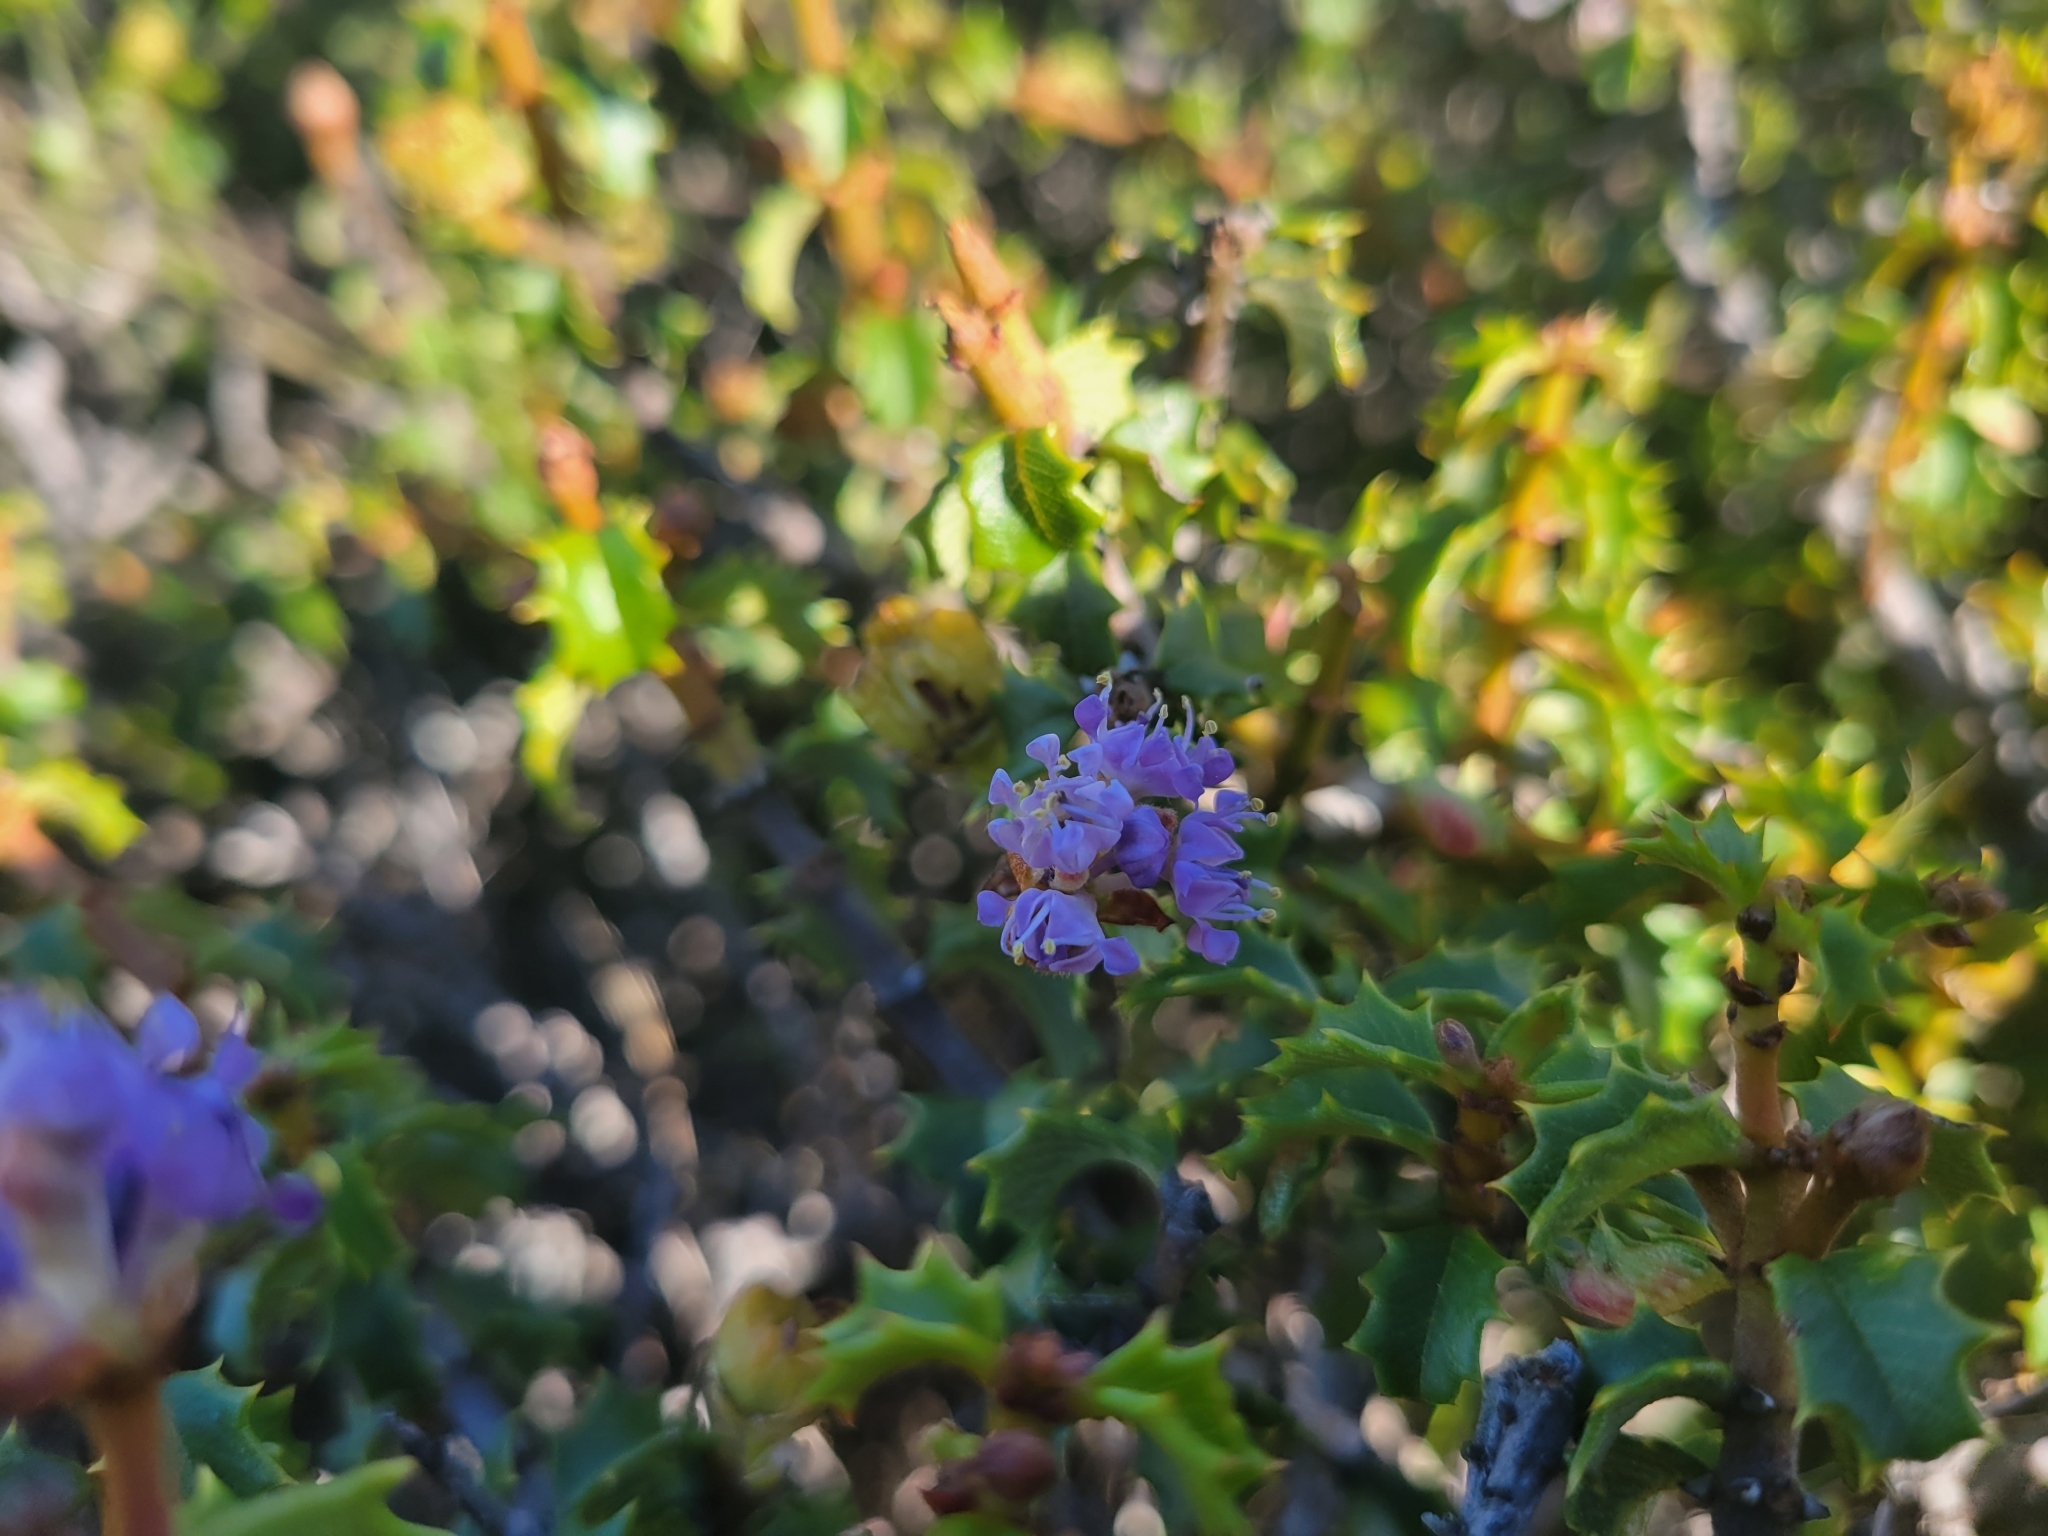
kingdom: Plantae
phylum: Tracheophyta
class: Magnoliopsida
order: Rosales
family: Rhamnaceae
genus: Ceanothus
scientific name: Ceanothus jepsonii
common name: Muskbrush
